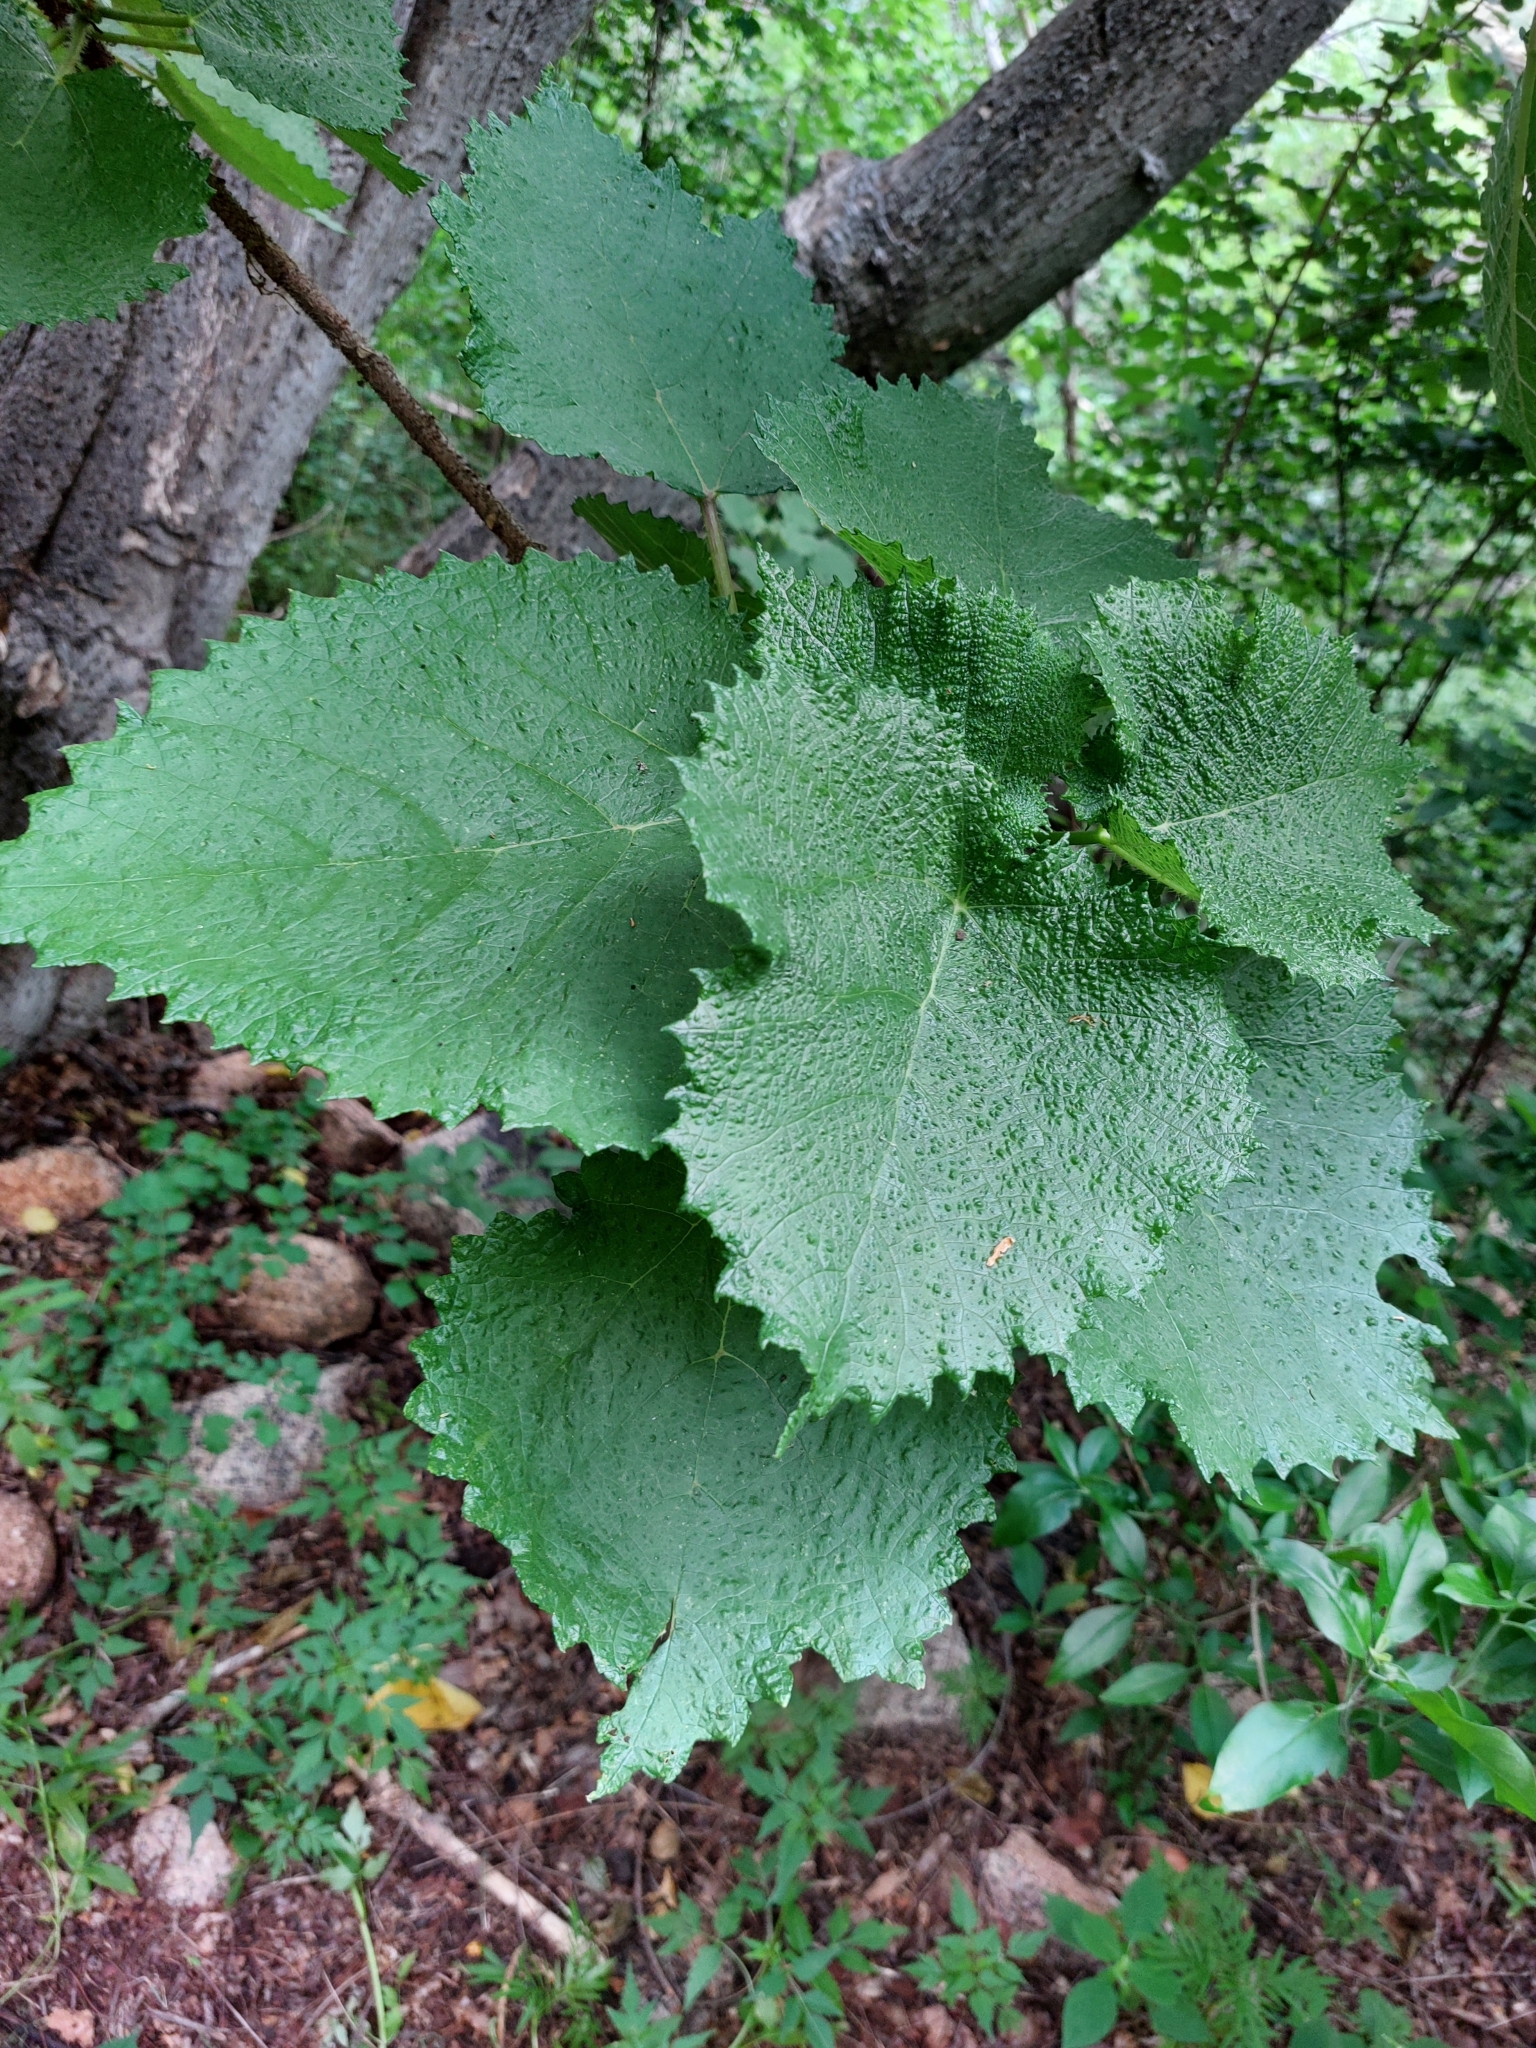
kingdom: Plantae
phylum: Tracheophyta
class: Magnoliopsida
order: Rosales
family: Urticaceae
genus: Obetia
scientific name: Obetia tenax
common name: Rock tree nettle
